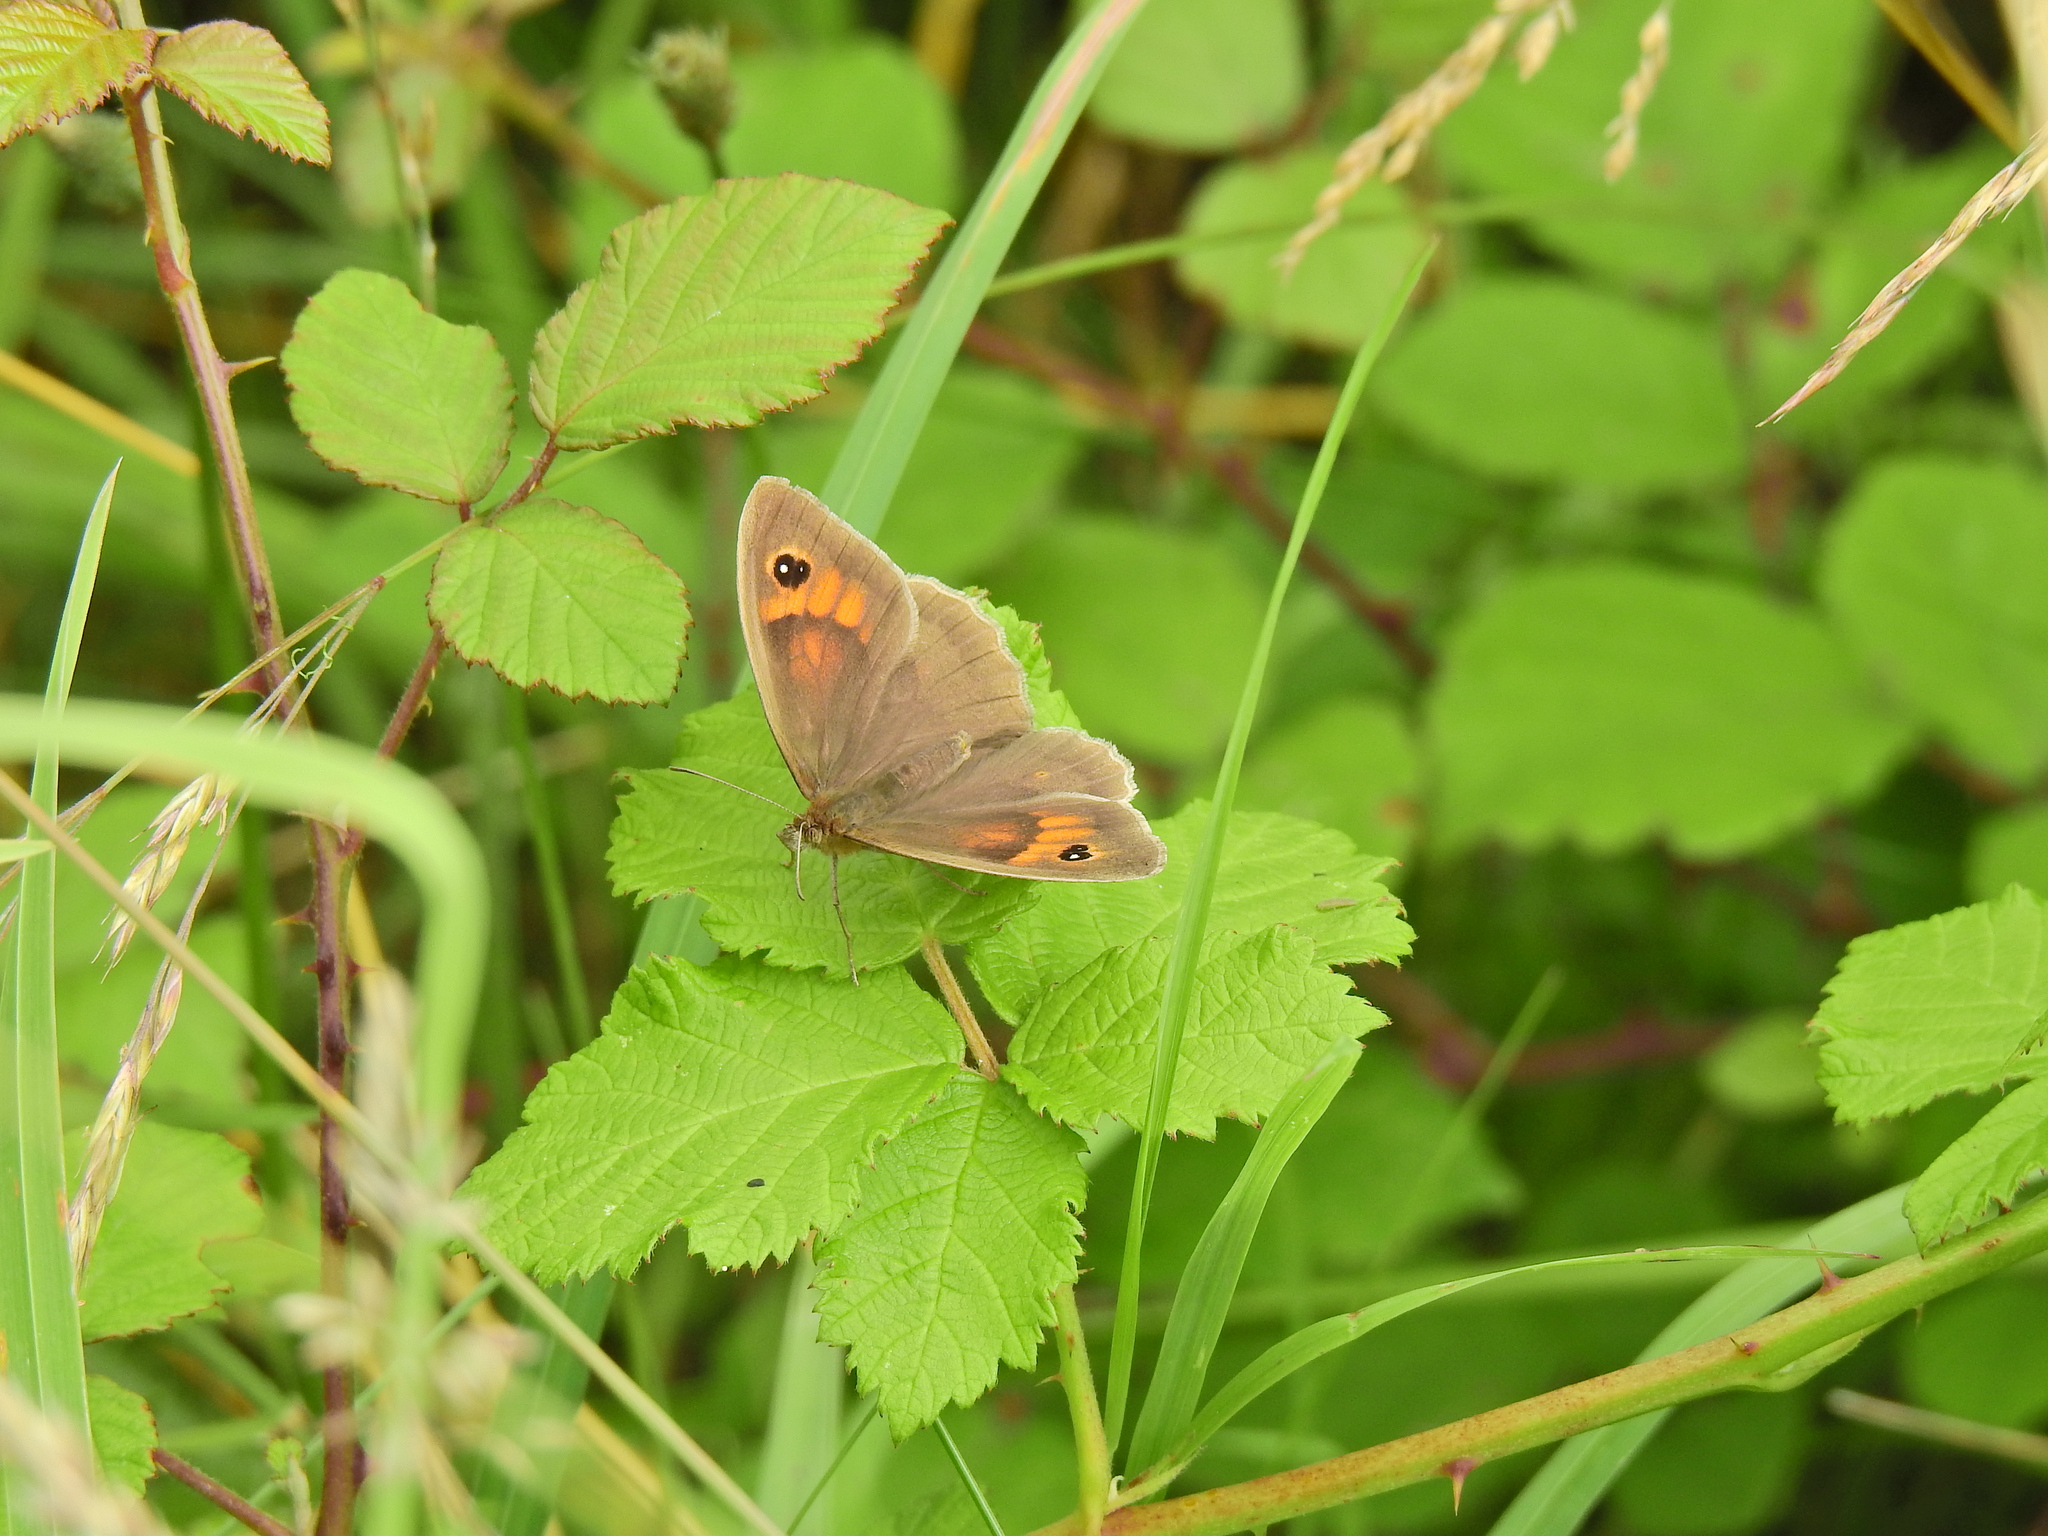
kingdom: Animalia
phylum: Arthropoda
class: Insecta
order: Lepidoptera
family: Nymphalidae
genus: Maniola
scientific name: Maniola jurtina
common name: Meadow brown
